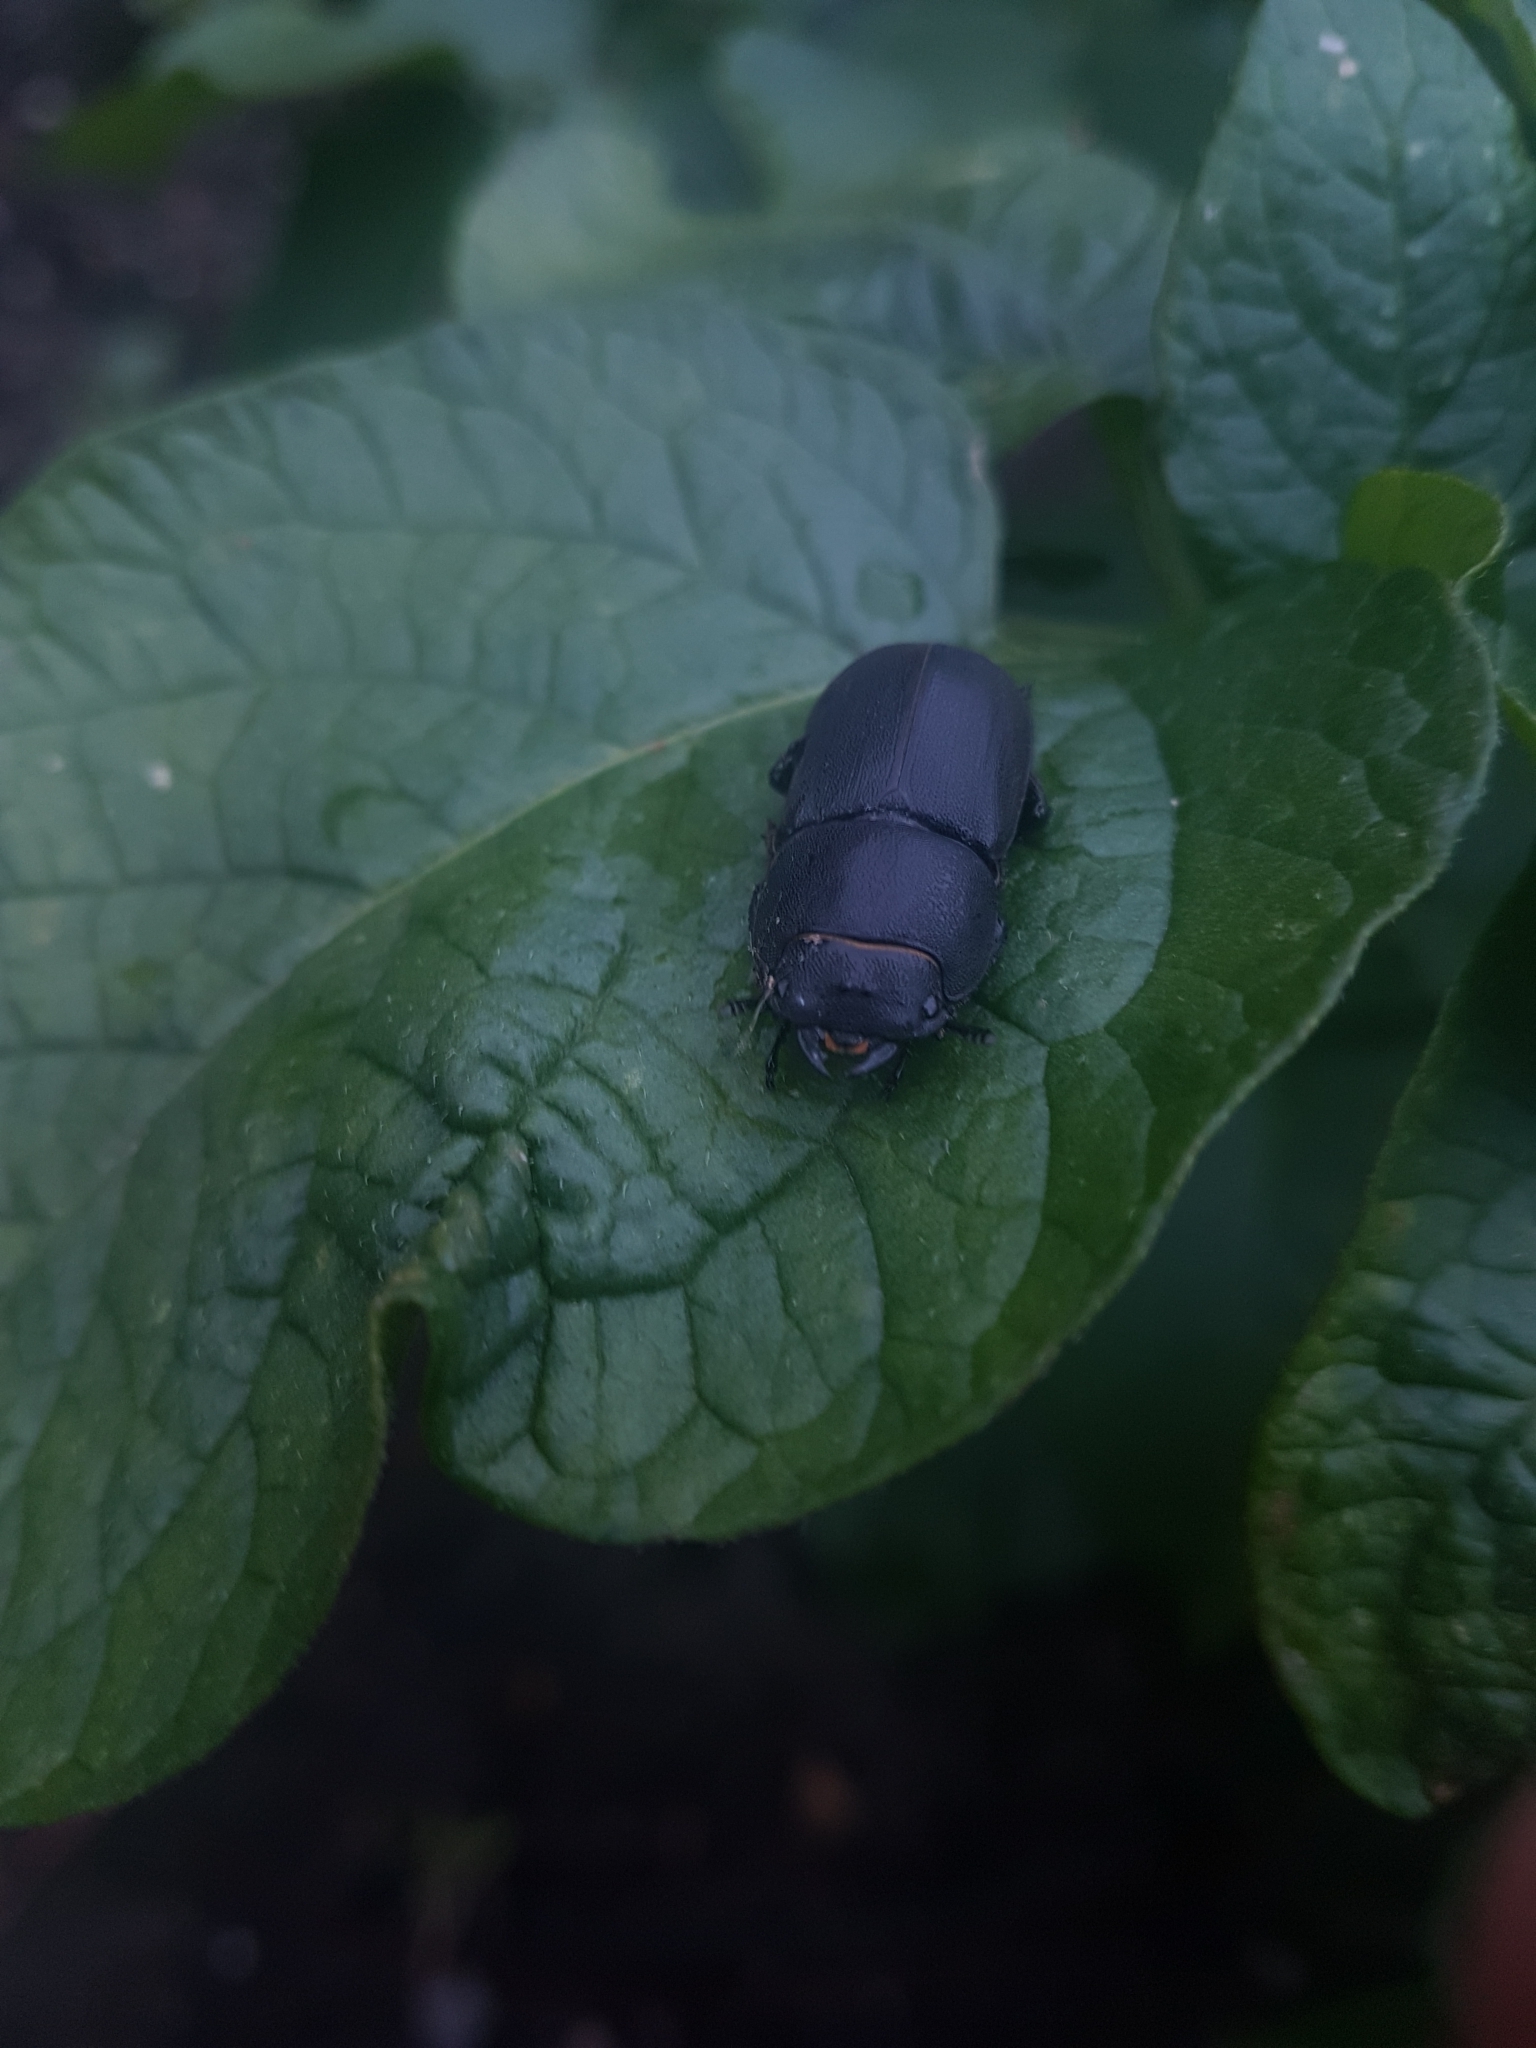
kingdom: Animalia
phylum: Arthropoda
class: Insecta
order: Coleoptera
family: Lucanidae
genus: Dorcus
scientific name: Dorcus parallelipipedus
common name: Lesser stag beetle
